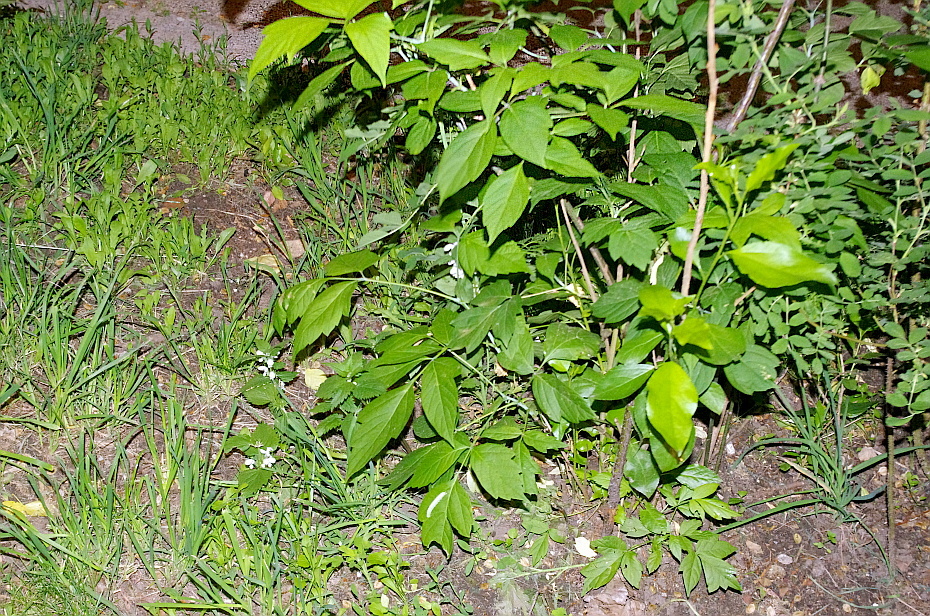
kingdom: Plantae
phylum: Tracheophyta
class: Magnoliopsida
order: Sapindales
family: Sapindaceae
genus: Acer
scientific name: Acer negundo
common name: Ashleaf maple
